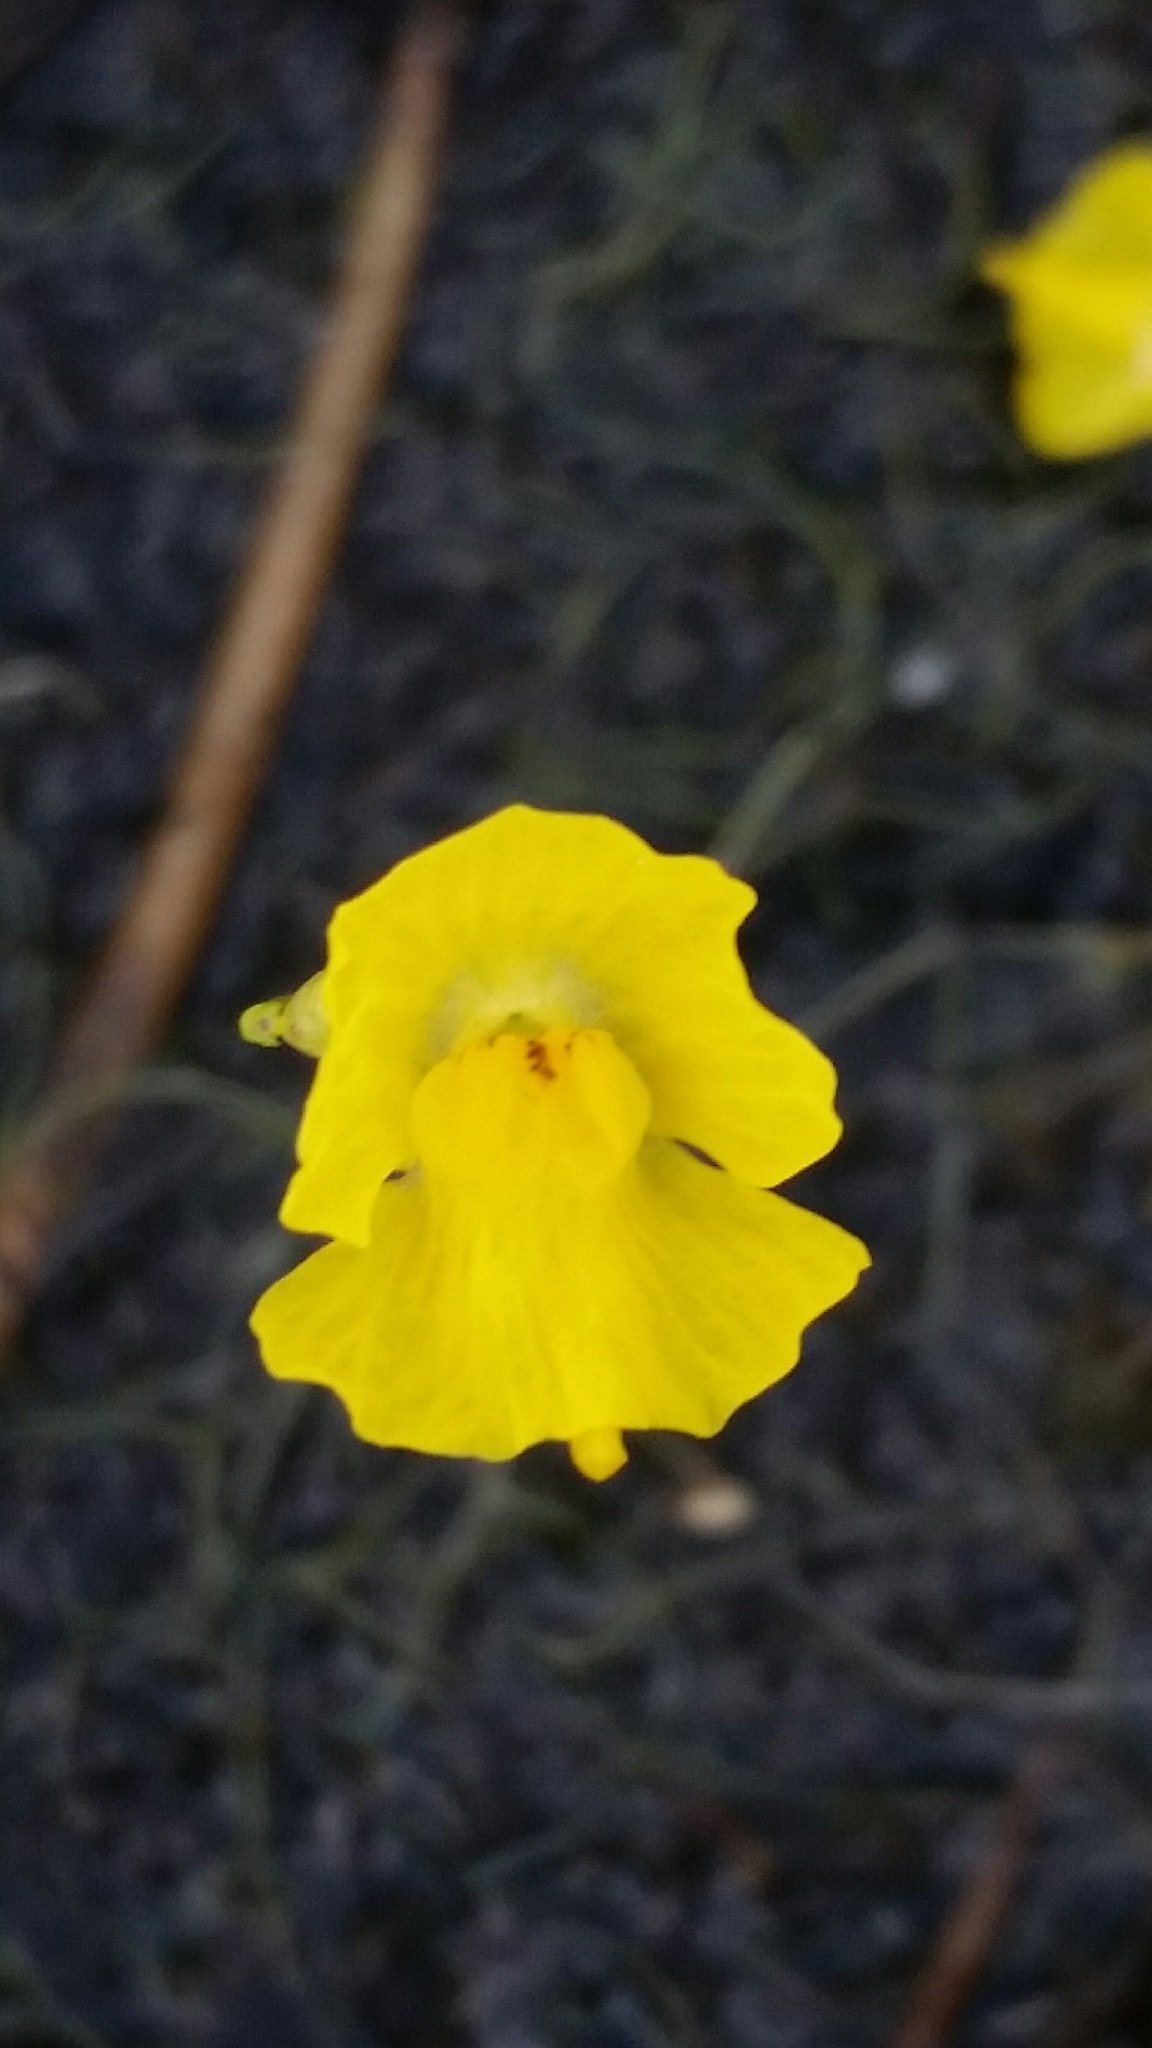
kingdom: Plantae
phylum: Tracheophyta
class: Magnoliopsida
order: Lamiales
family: Lentibulariaceae
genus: Utricularia
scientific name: Utricularia gibba
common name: Humped bladderwort
